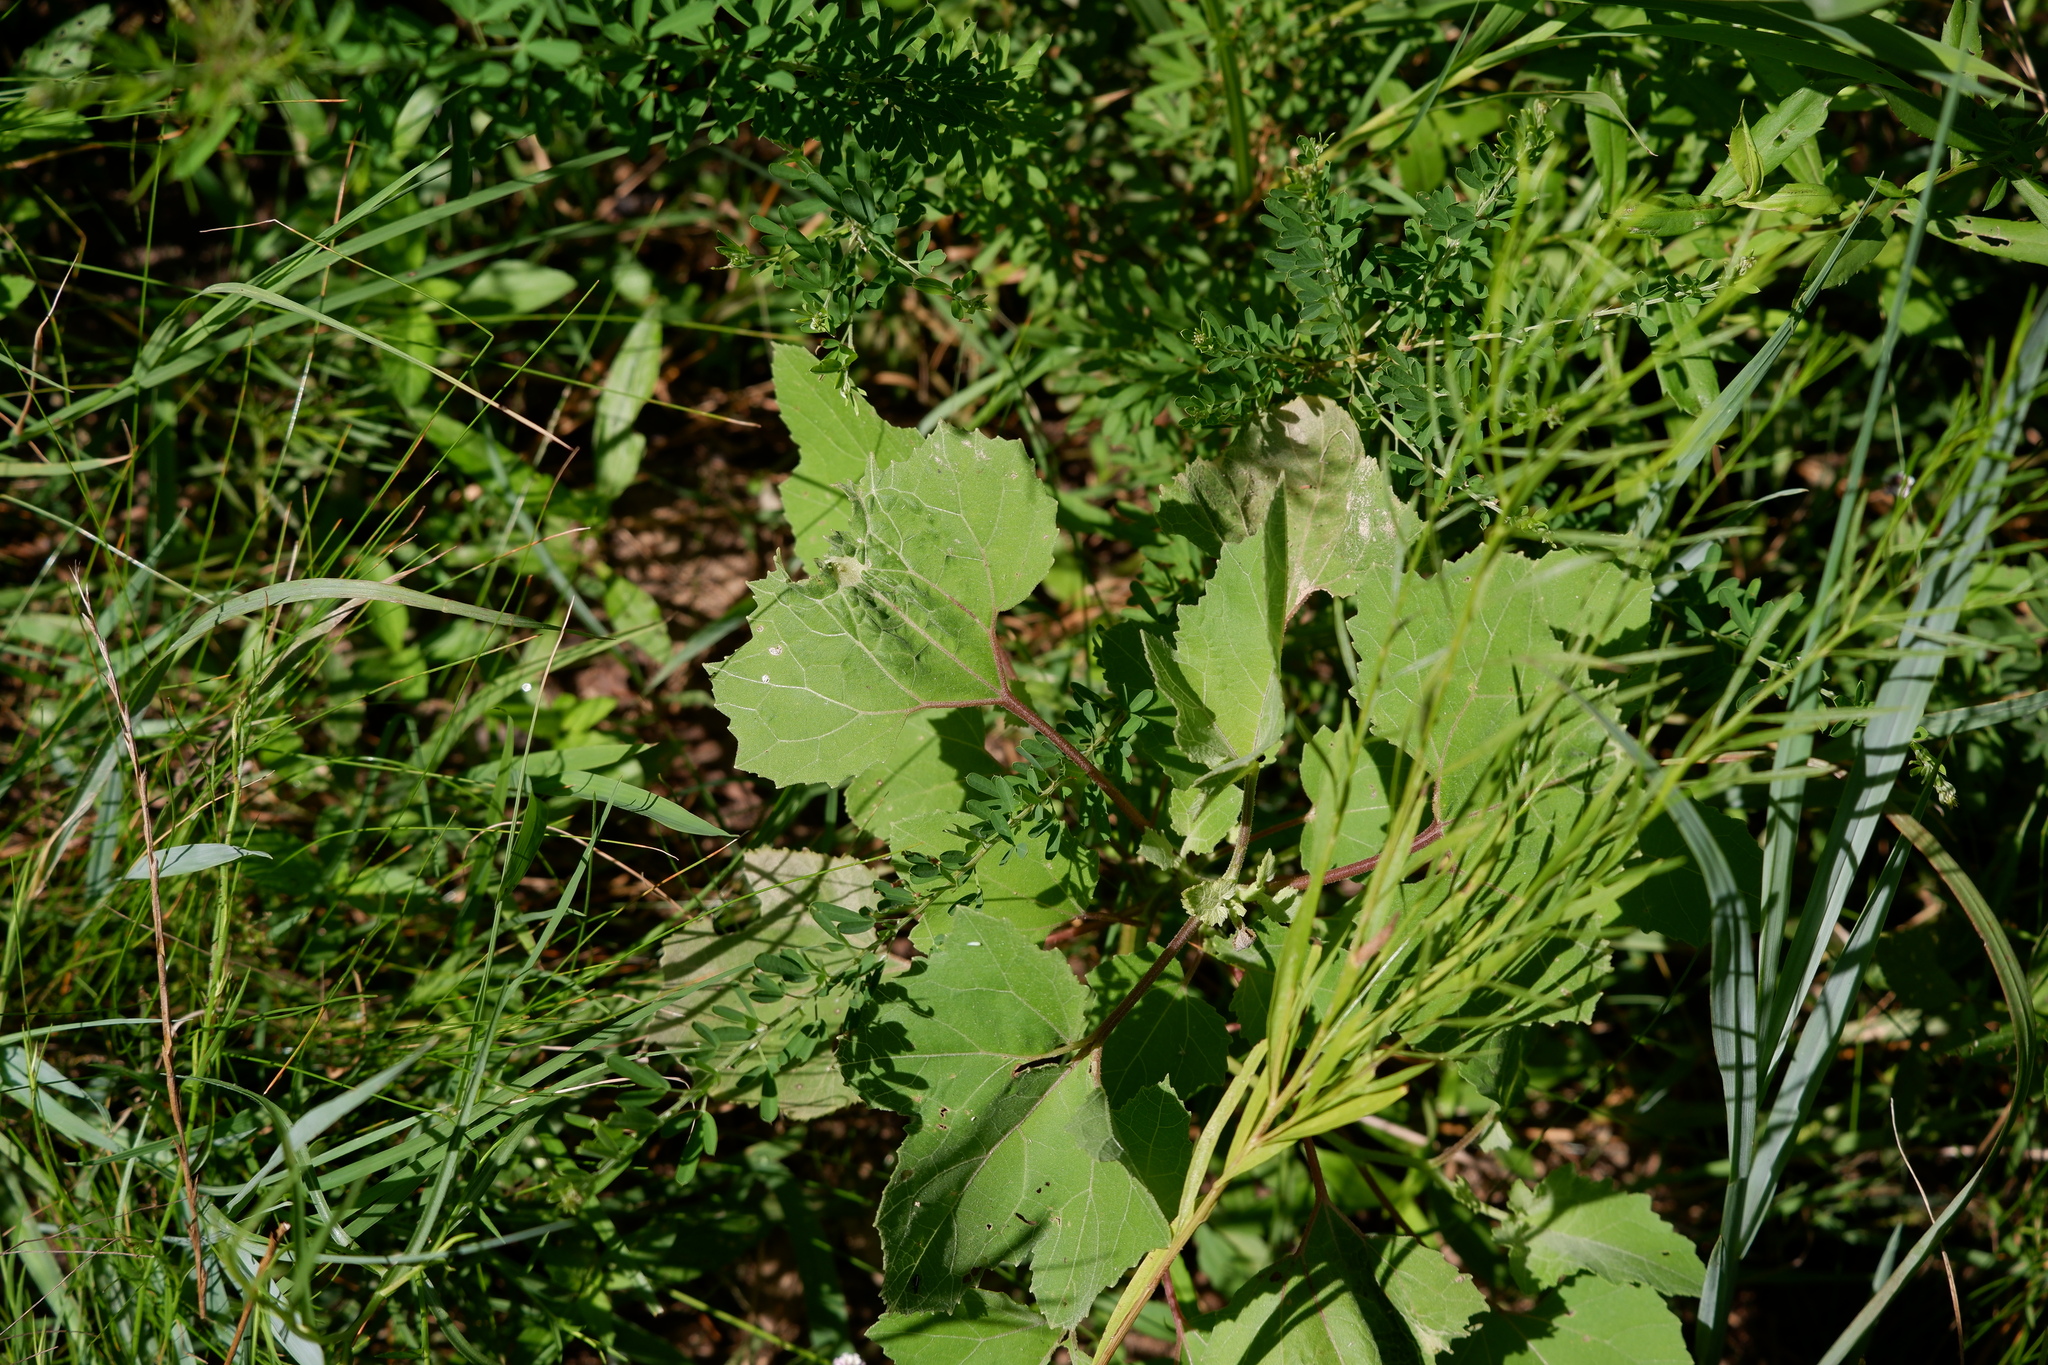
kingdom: Plantae
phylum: Tracheophyta
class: Magnoliopsida
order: Asterales
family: Asteraceae
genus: Xanthium
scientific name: Xanthium strumarium
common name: Rough cocklebur
